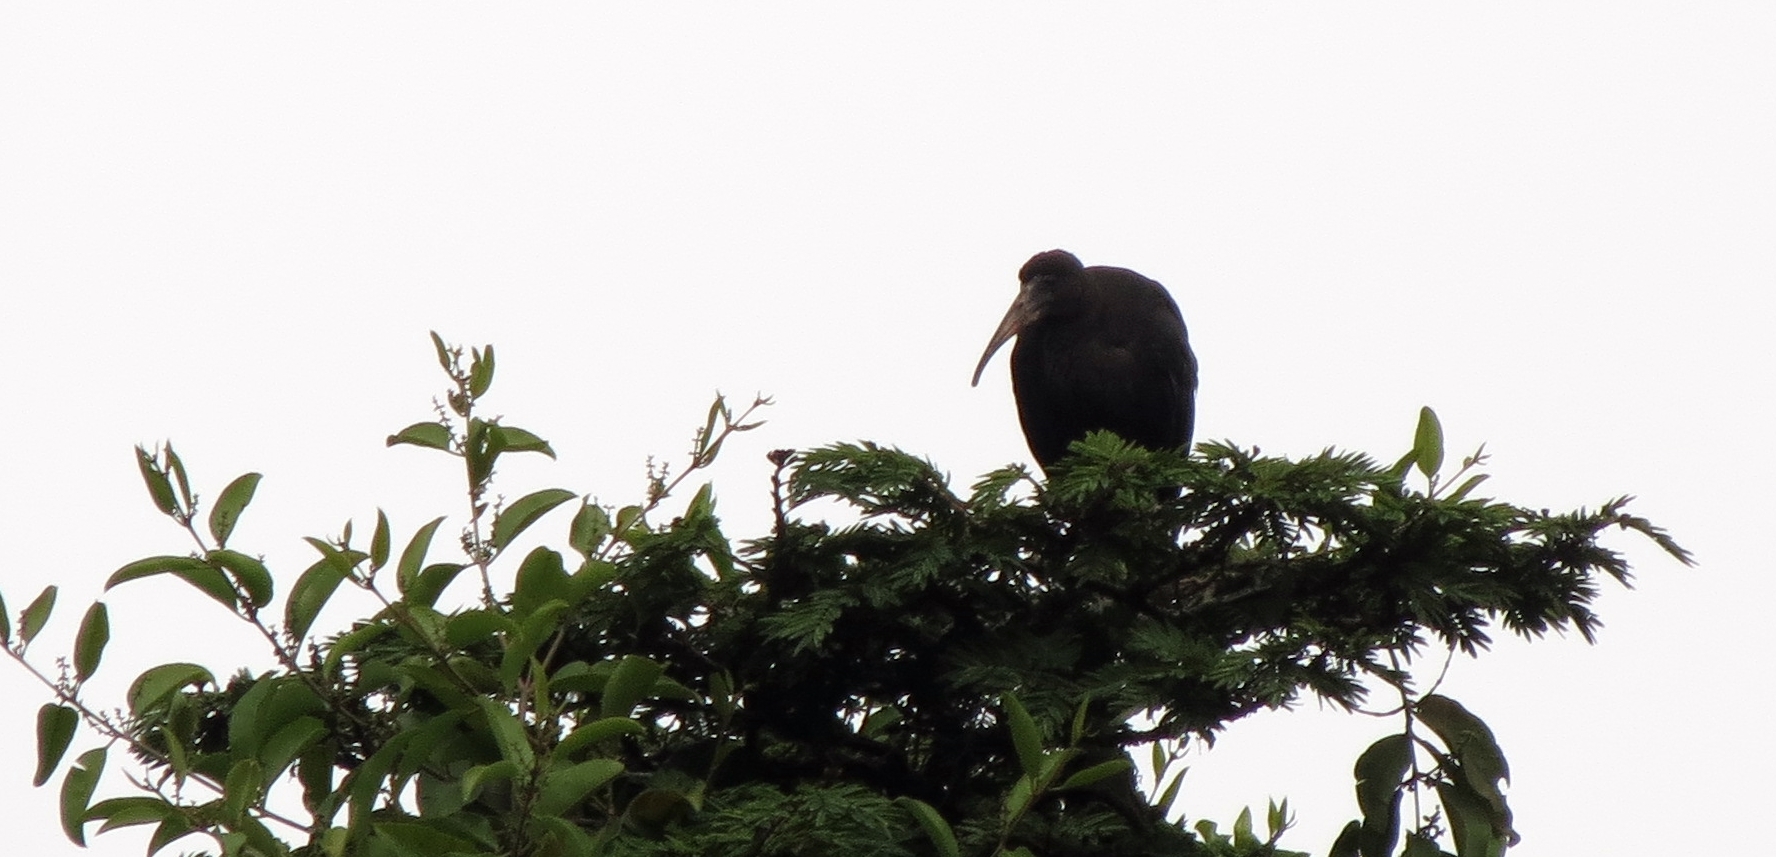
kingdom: Animalia
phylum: Chordata
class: Aves
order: Pelecaniformes
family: Threskiornithidae
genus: Phimosus
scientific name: Phimosus infuscatus
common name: Bare-faced ibis
